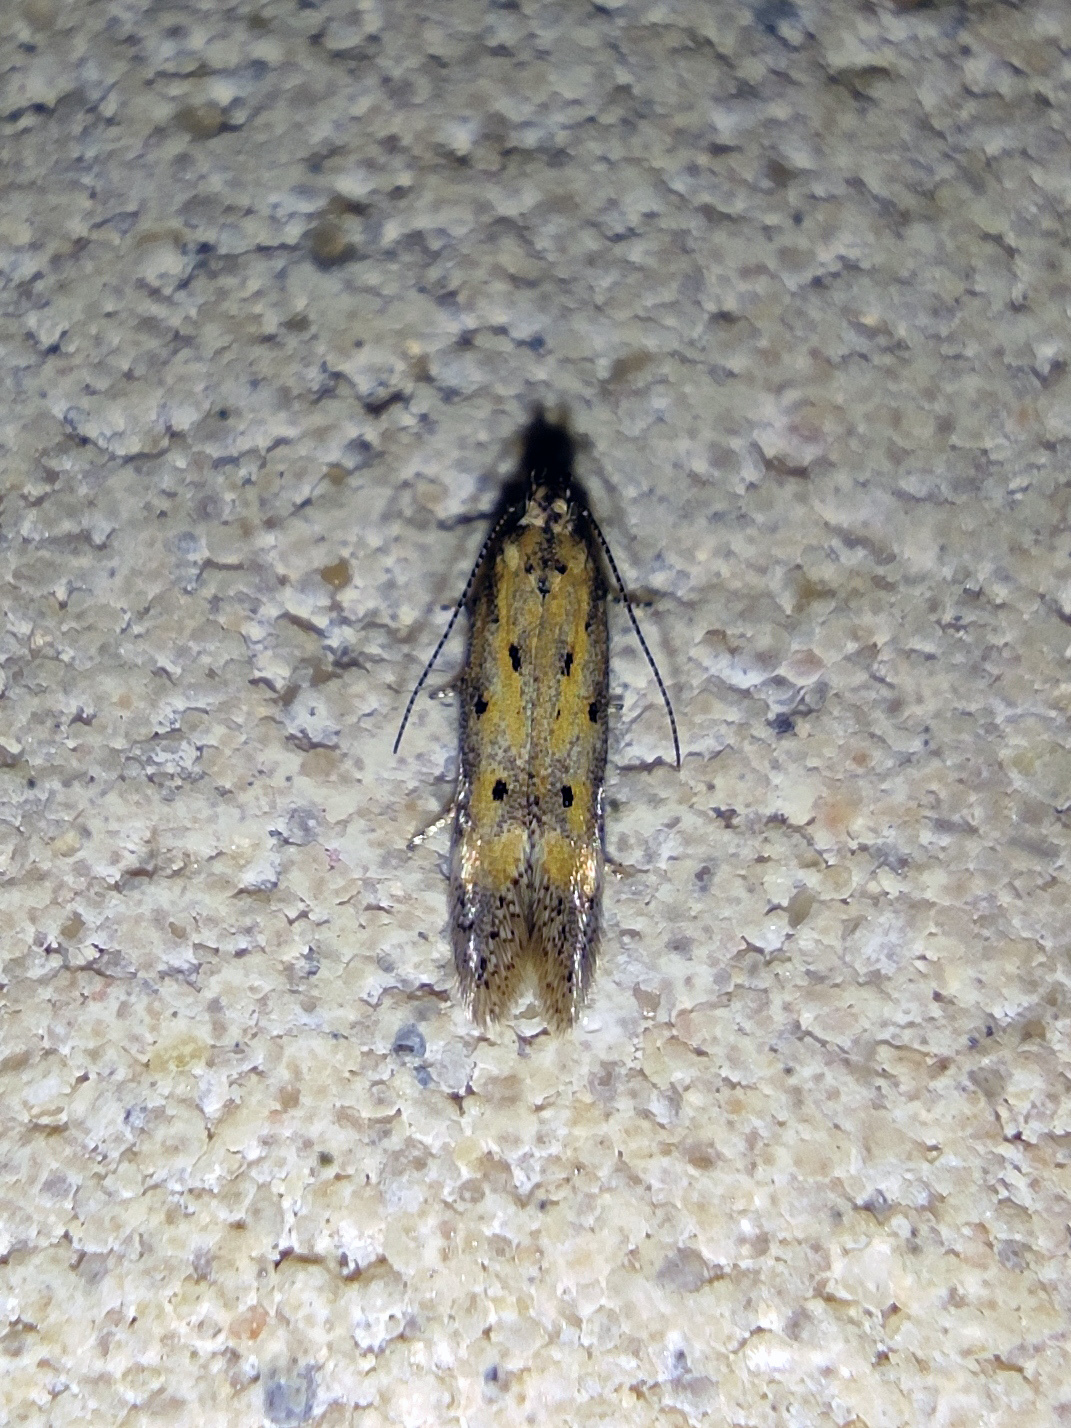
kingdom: Animalia
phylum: Arthropoda
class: Insecta
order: Lepidoptera
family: Gelechiidae
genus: Athrips
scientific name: Athrips nigricostella
